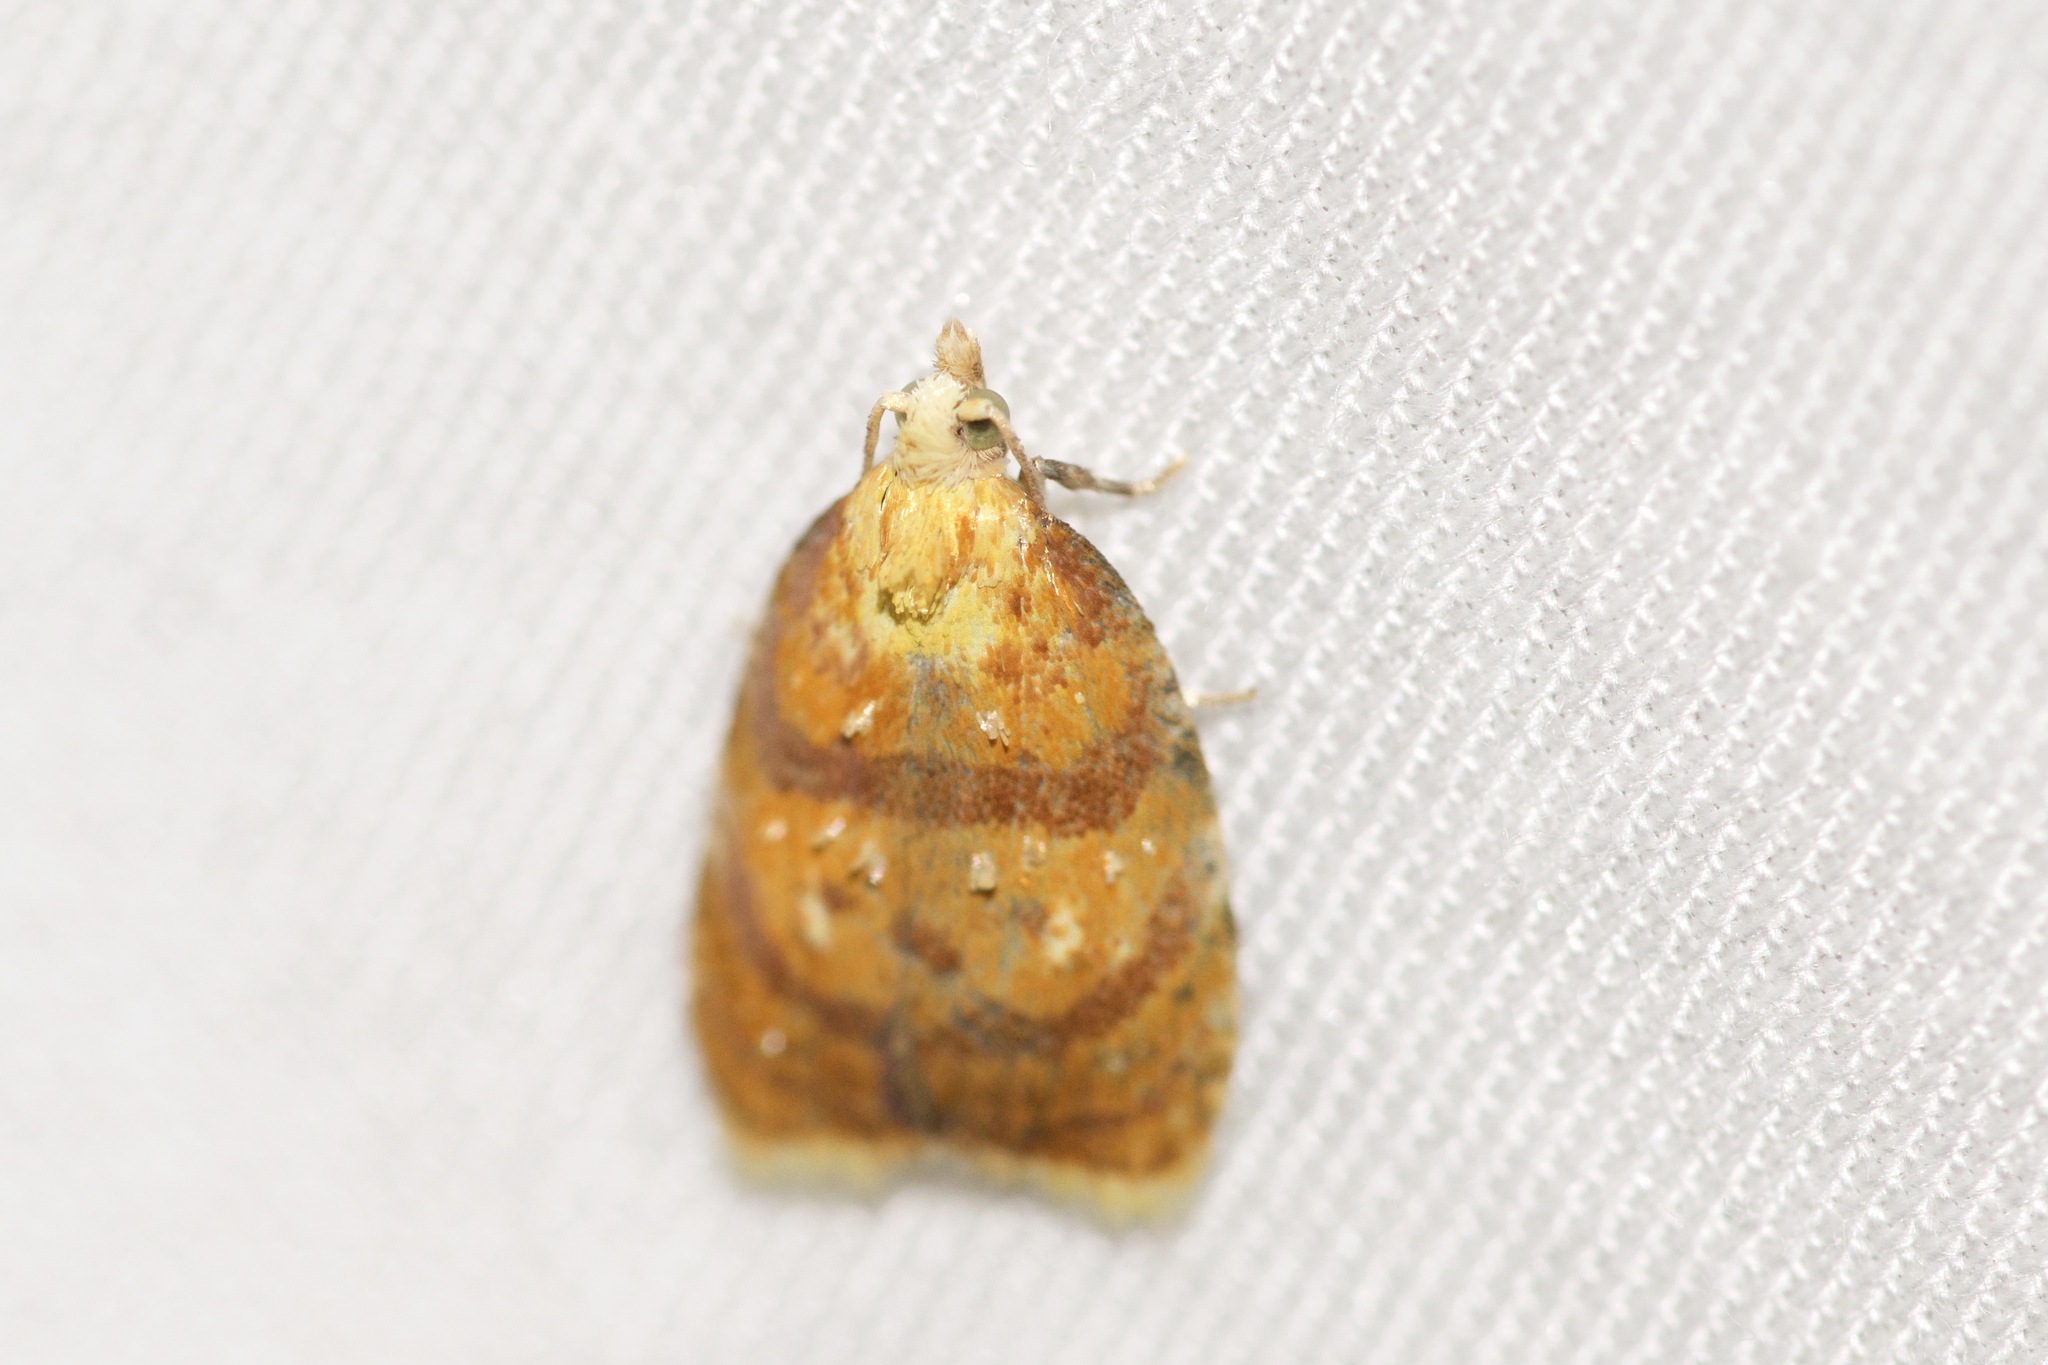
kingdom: Animalia
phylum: Arthropoda
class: Insecta
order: Lepidoptera
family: Tortricidae
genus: Acleris
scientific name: Acleris albicomana
